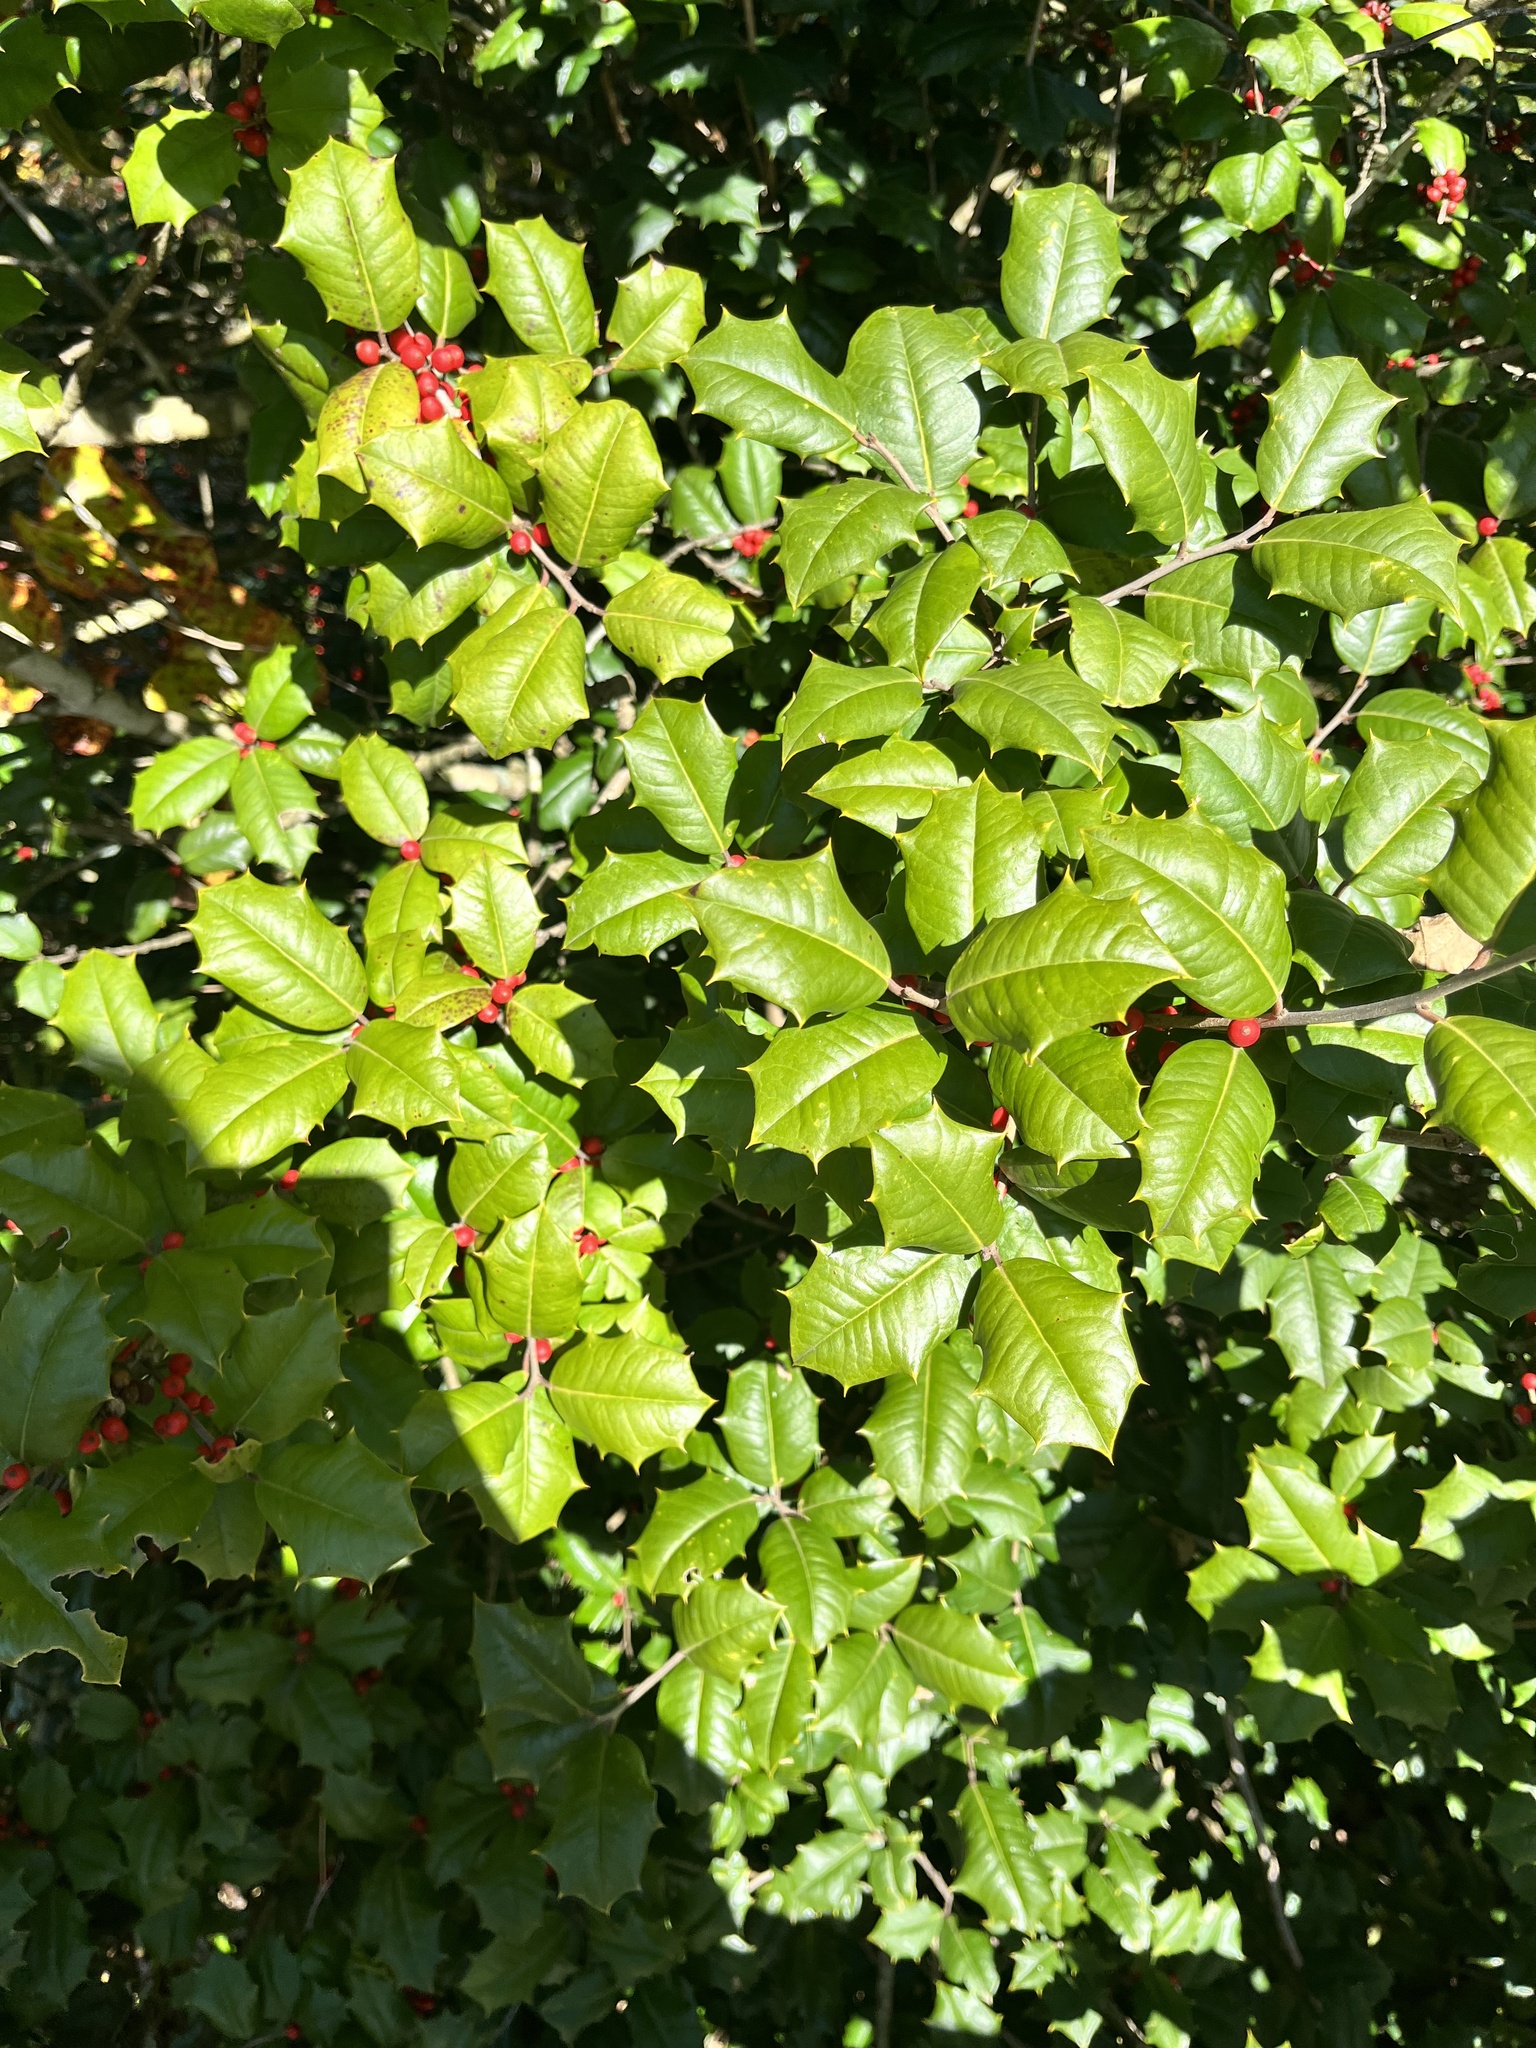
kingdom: Plantae
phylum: Tracheophyta
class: Magnoliopsida
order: Aquifoliales
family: Aquifoliaceae
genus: Ilex
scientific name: Ilex opaca
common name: American holly
